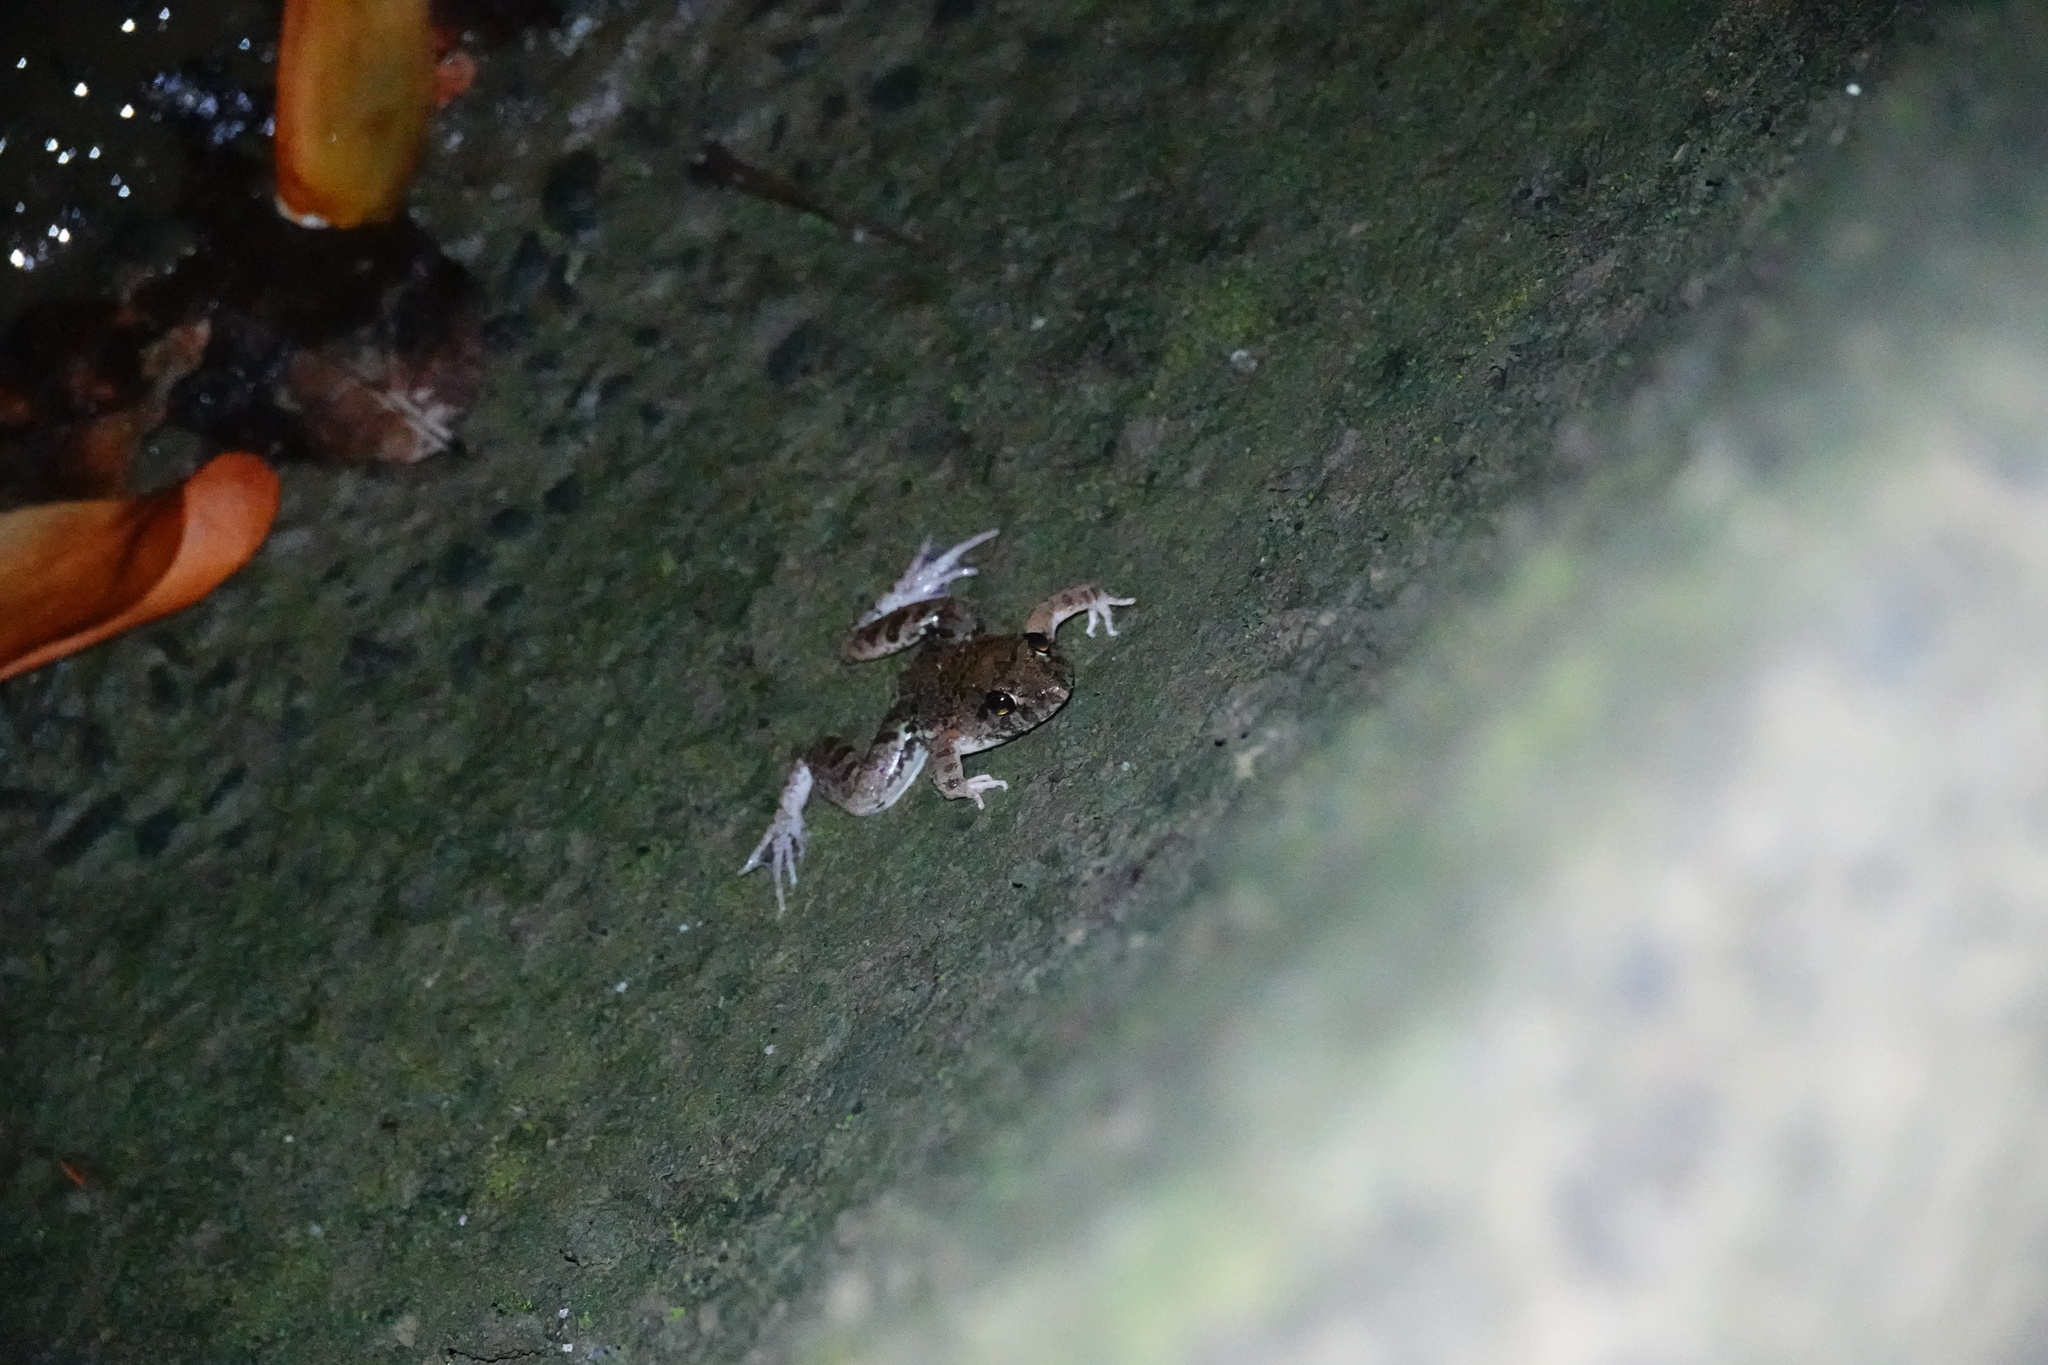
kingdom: Animalia
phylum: Chordata
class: Amphibia
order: Anura
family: Dicroglossidae
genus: Fejervarya
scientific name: Fejervarya limnocharis
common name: Asian grass frog/common pond frog/field frog/grass frog/indian rice frog
